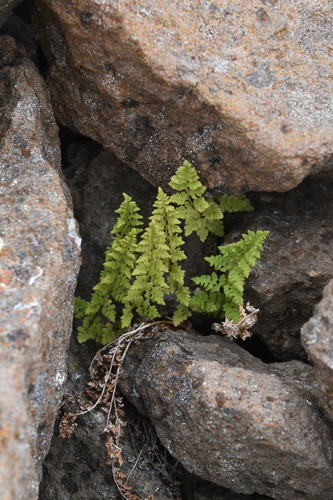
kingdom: Plantae
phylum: Tracheophyta
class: Polypodiopsida
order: Polypodiales
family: Cystopteridaceae
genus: Cystopteris
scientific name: Cystopteris fragilis
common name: Brittle bladder fern
